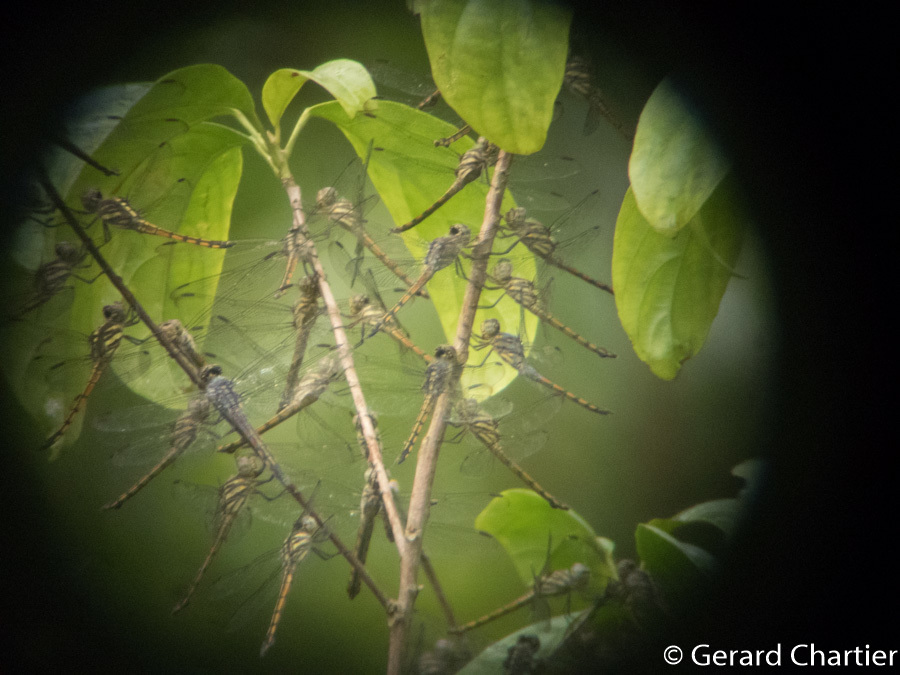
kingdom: Animalia
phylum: Arthropoda
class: Insecta
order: Odonata
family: Libellulidae
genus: Potamarcha
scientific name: Potamarcha congener
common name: Blue chaser
